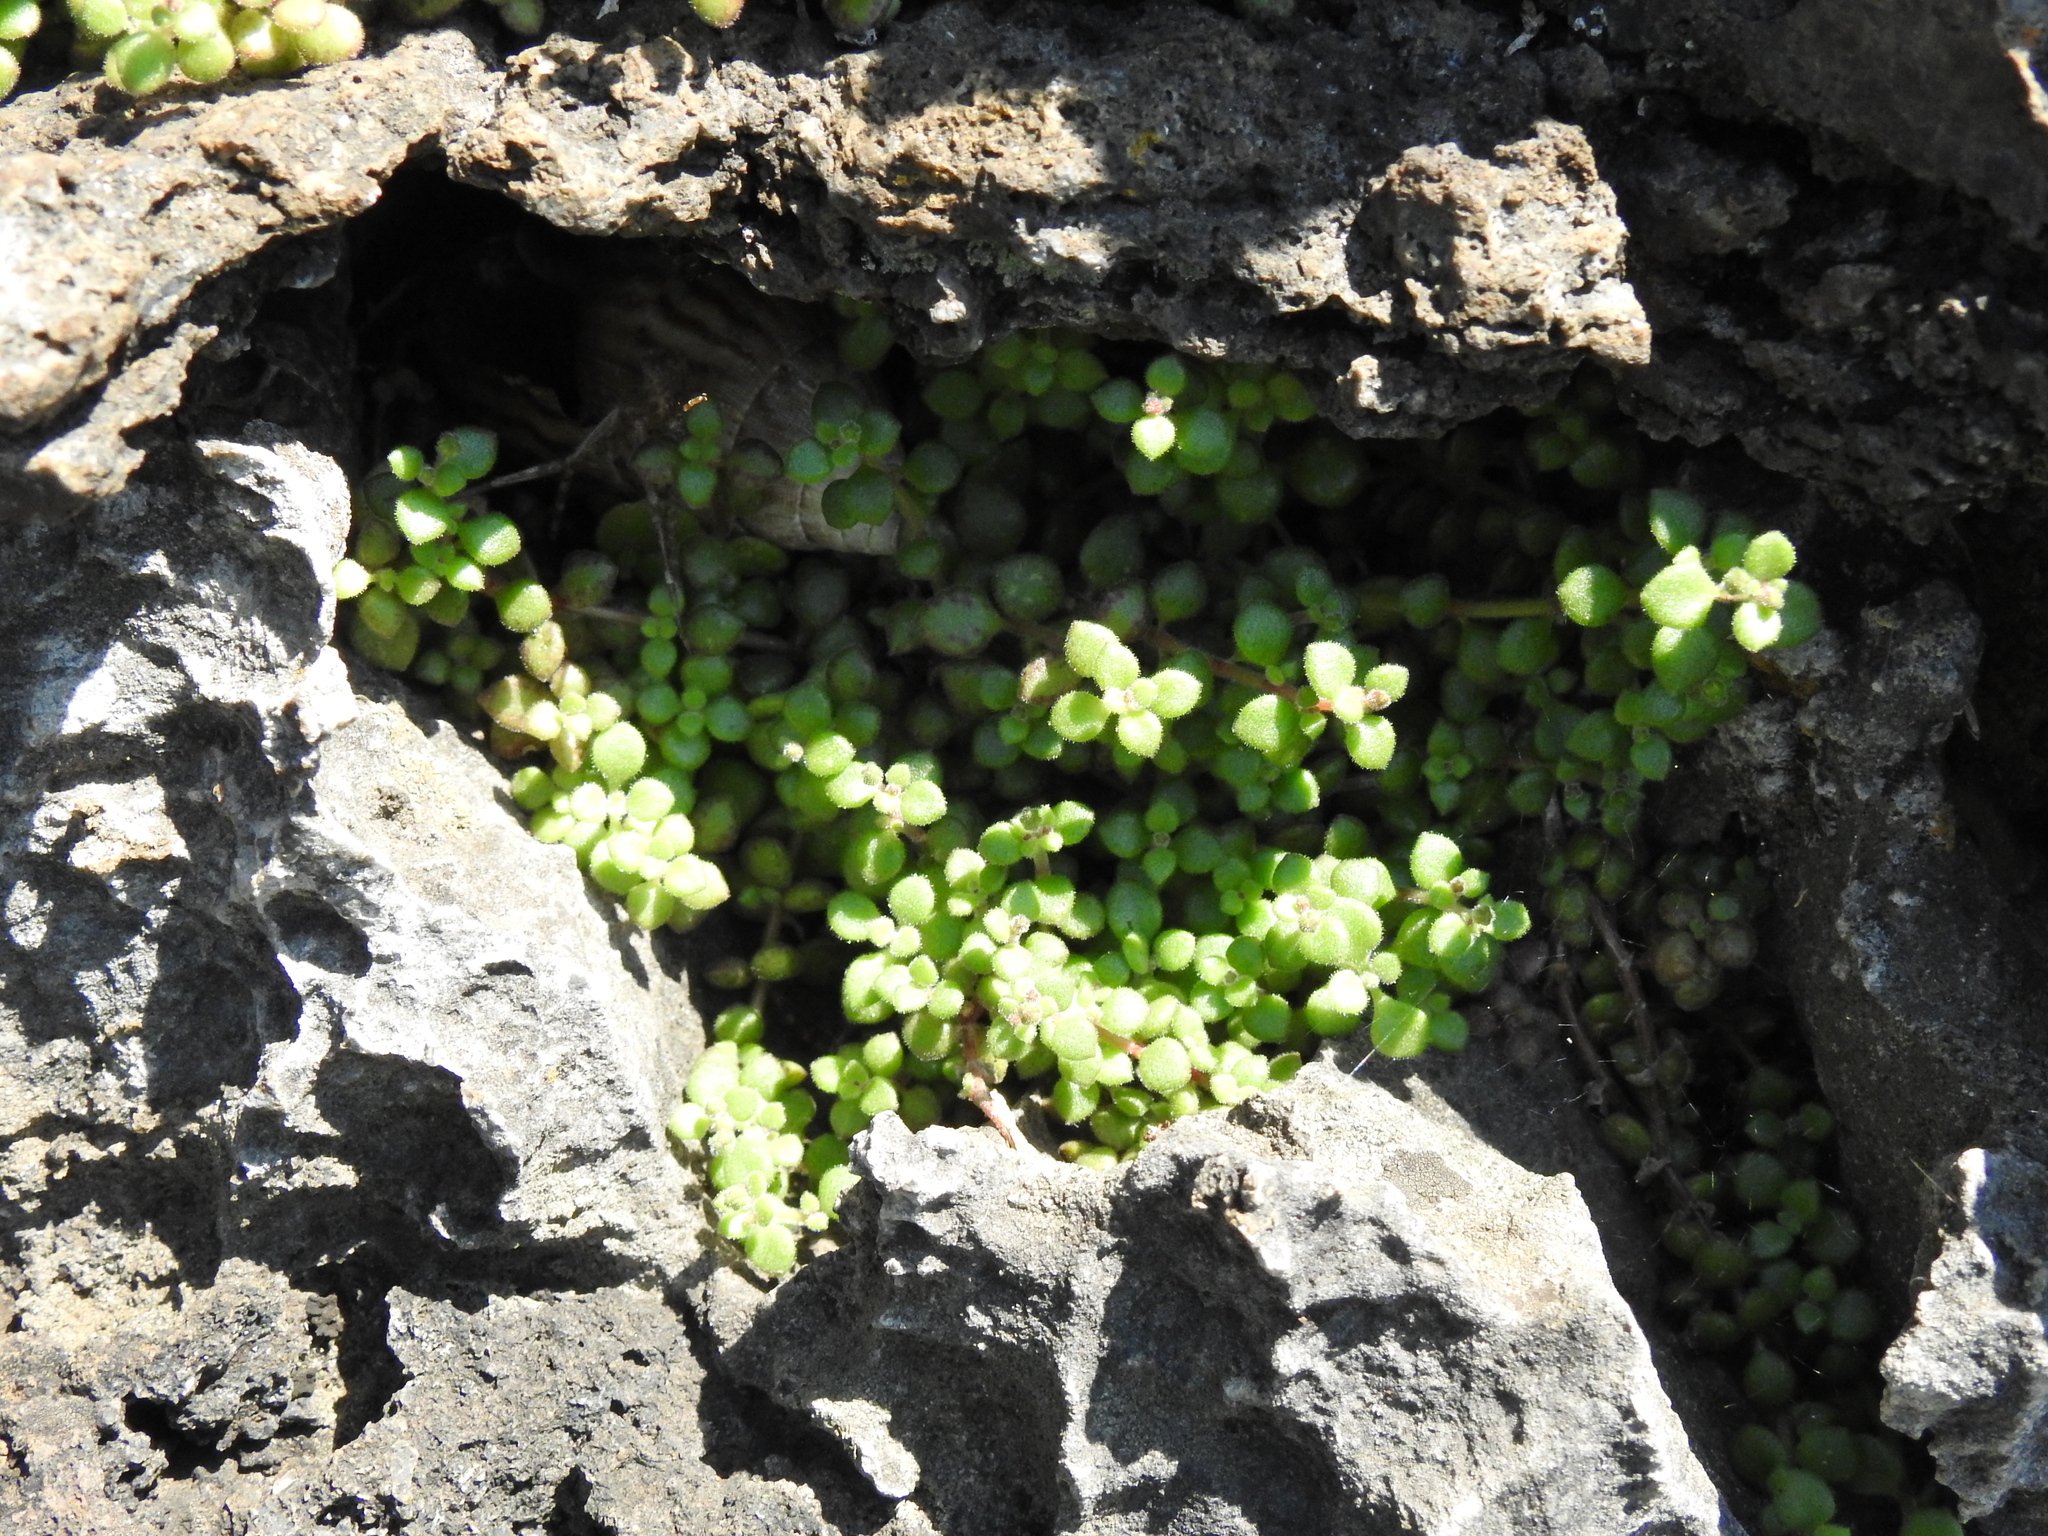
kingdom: Plantae
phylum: Tracheophyta
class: Magnoliopsida
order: Saxifragales
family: Crassulaceae
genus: Crassula
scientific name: Crassula expansa
